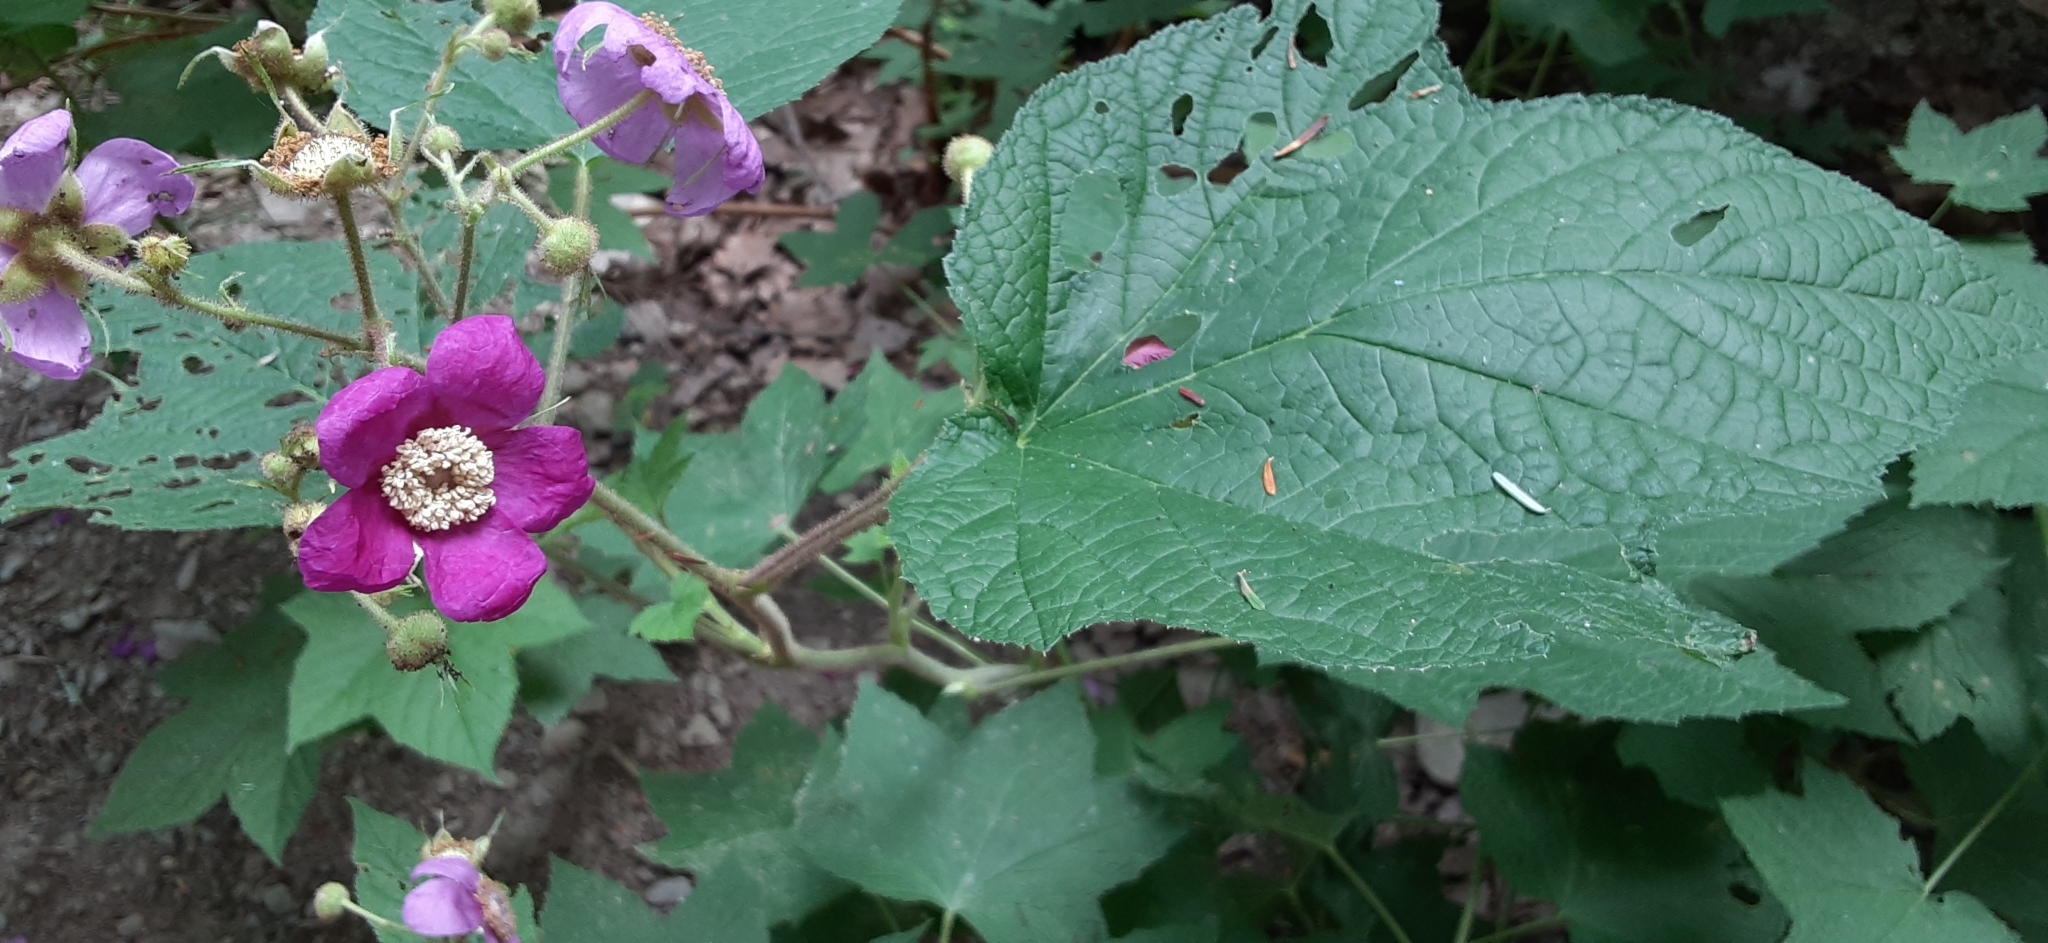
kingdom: Plantae
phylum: Tracheophyta
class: Magnoliopsida
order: Rosales
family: Rosaceae
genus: Rubus
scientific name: Rubus odoratus
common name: Purple-flowered raspberry
